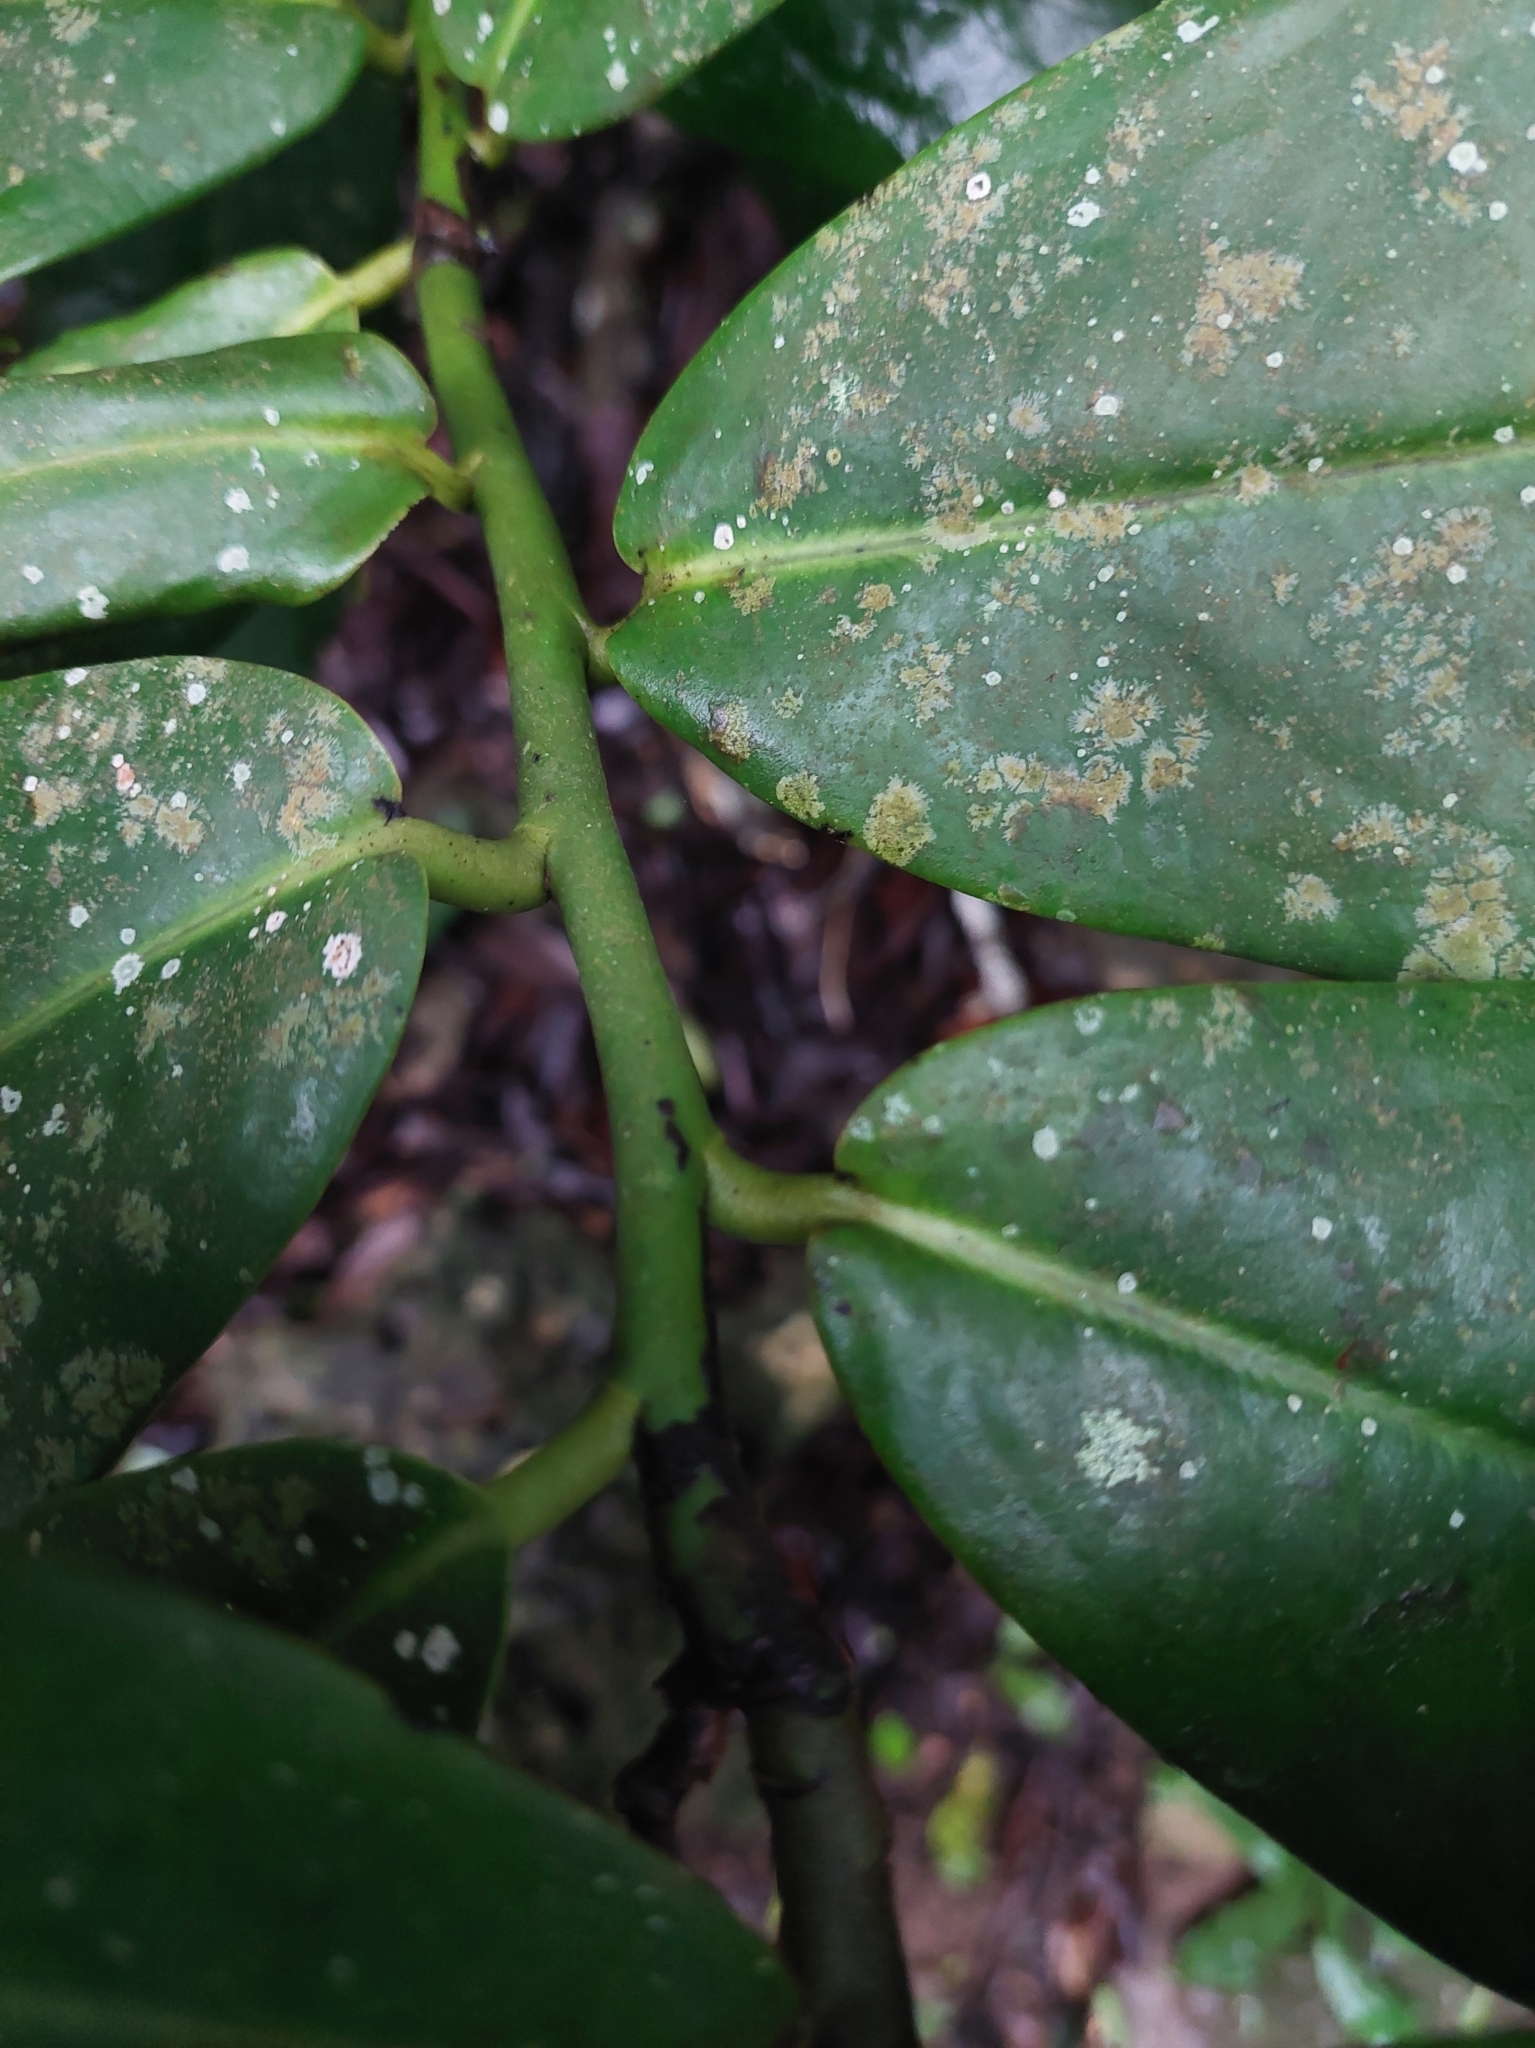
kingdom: Plantae
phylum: Tracheophyta
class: Magnoliopsida
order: Ericales
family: Ebenaceae
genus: Diospyros
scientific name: Diospyros blancoi
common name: Mabola-tree
